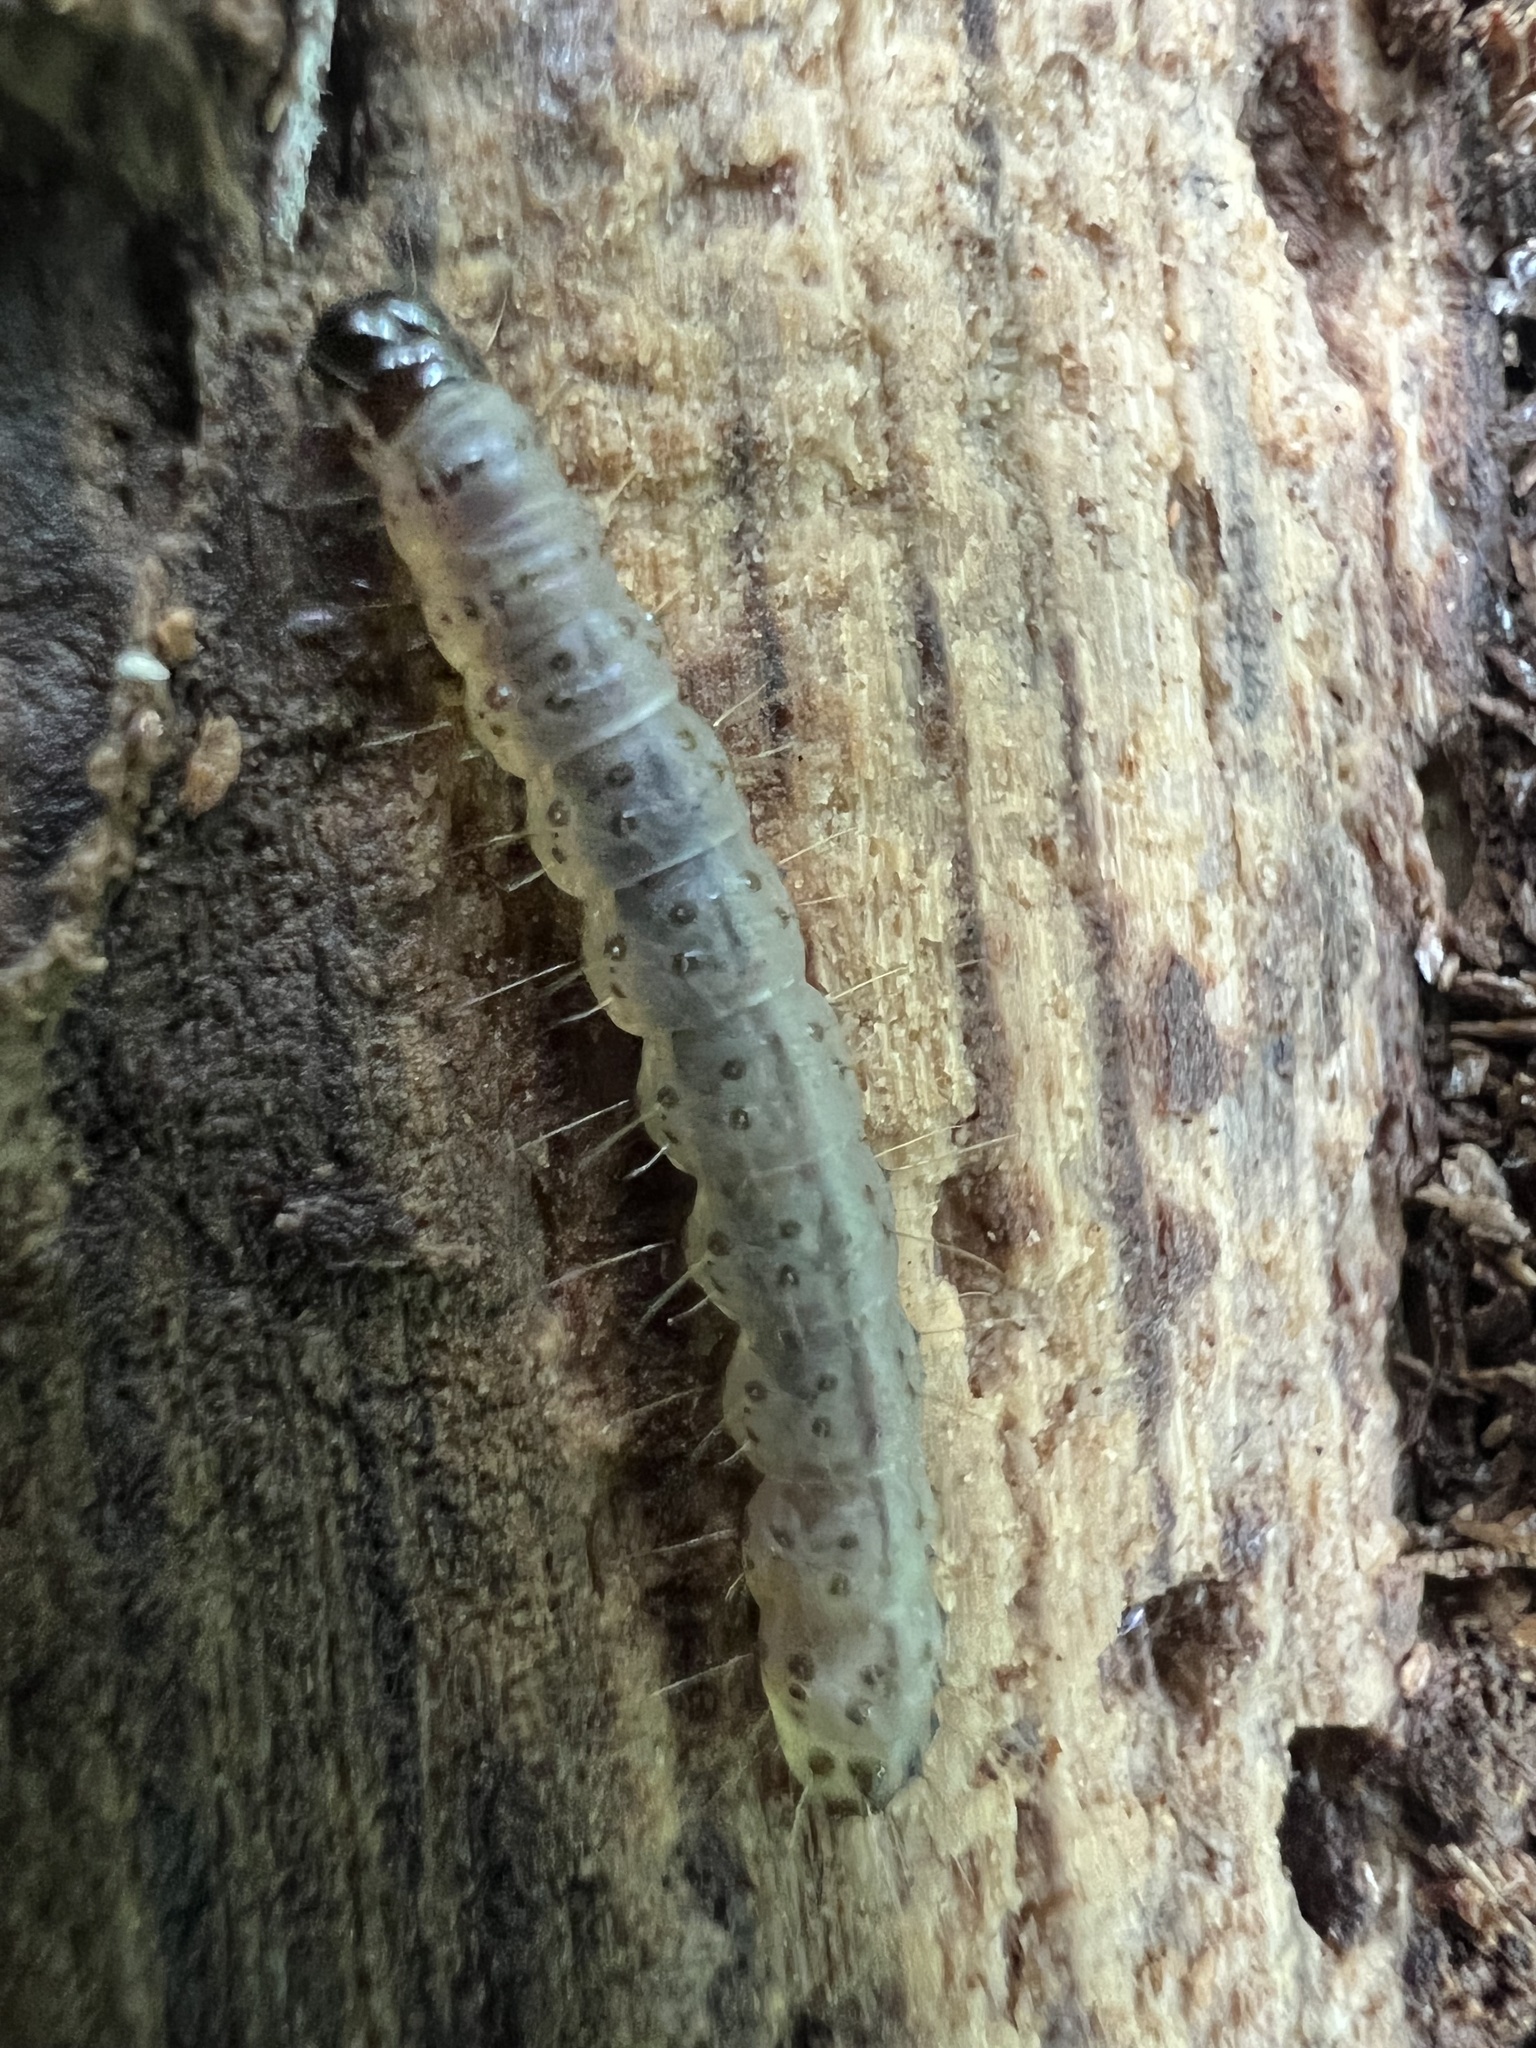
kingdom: Animalia
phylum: Arthropoda
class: Insecta
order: Lepidoptera
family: Erebidae
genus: Scolecocampa
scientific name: Scolecocampa liburna
